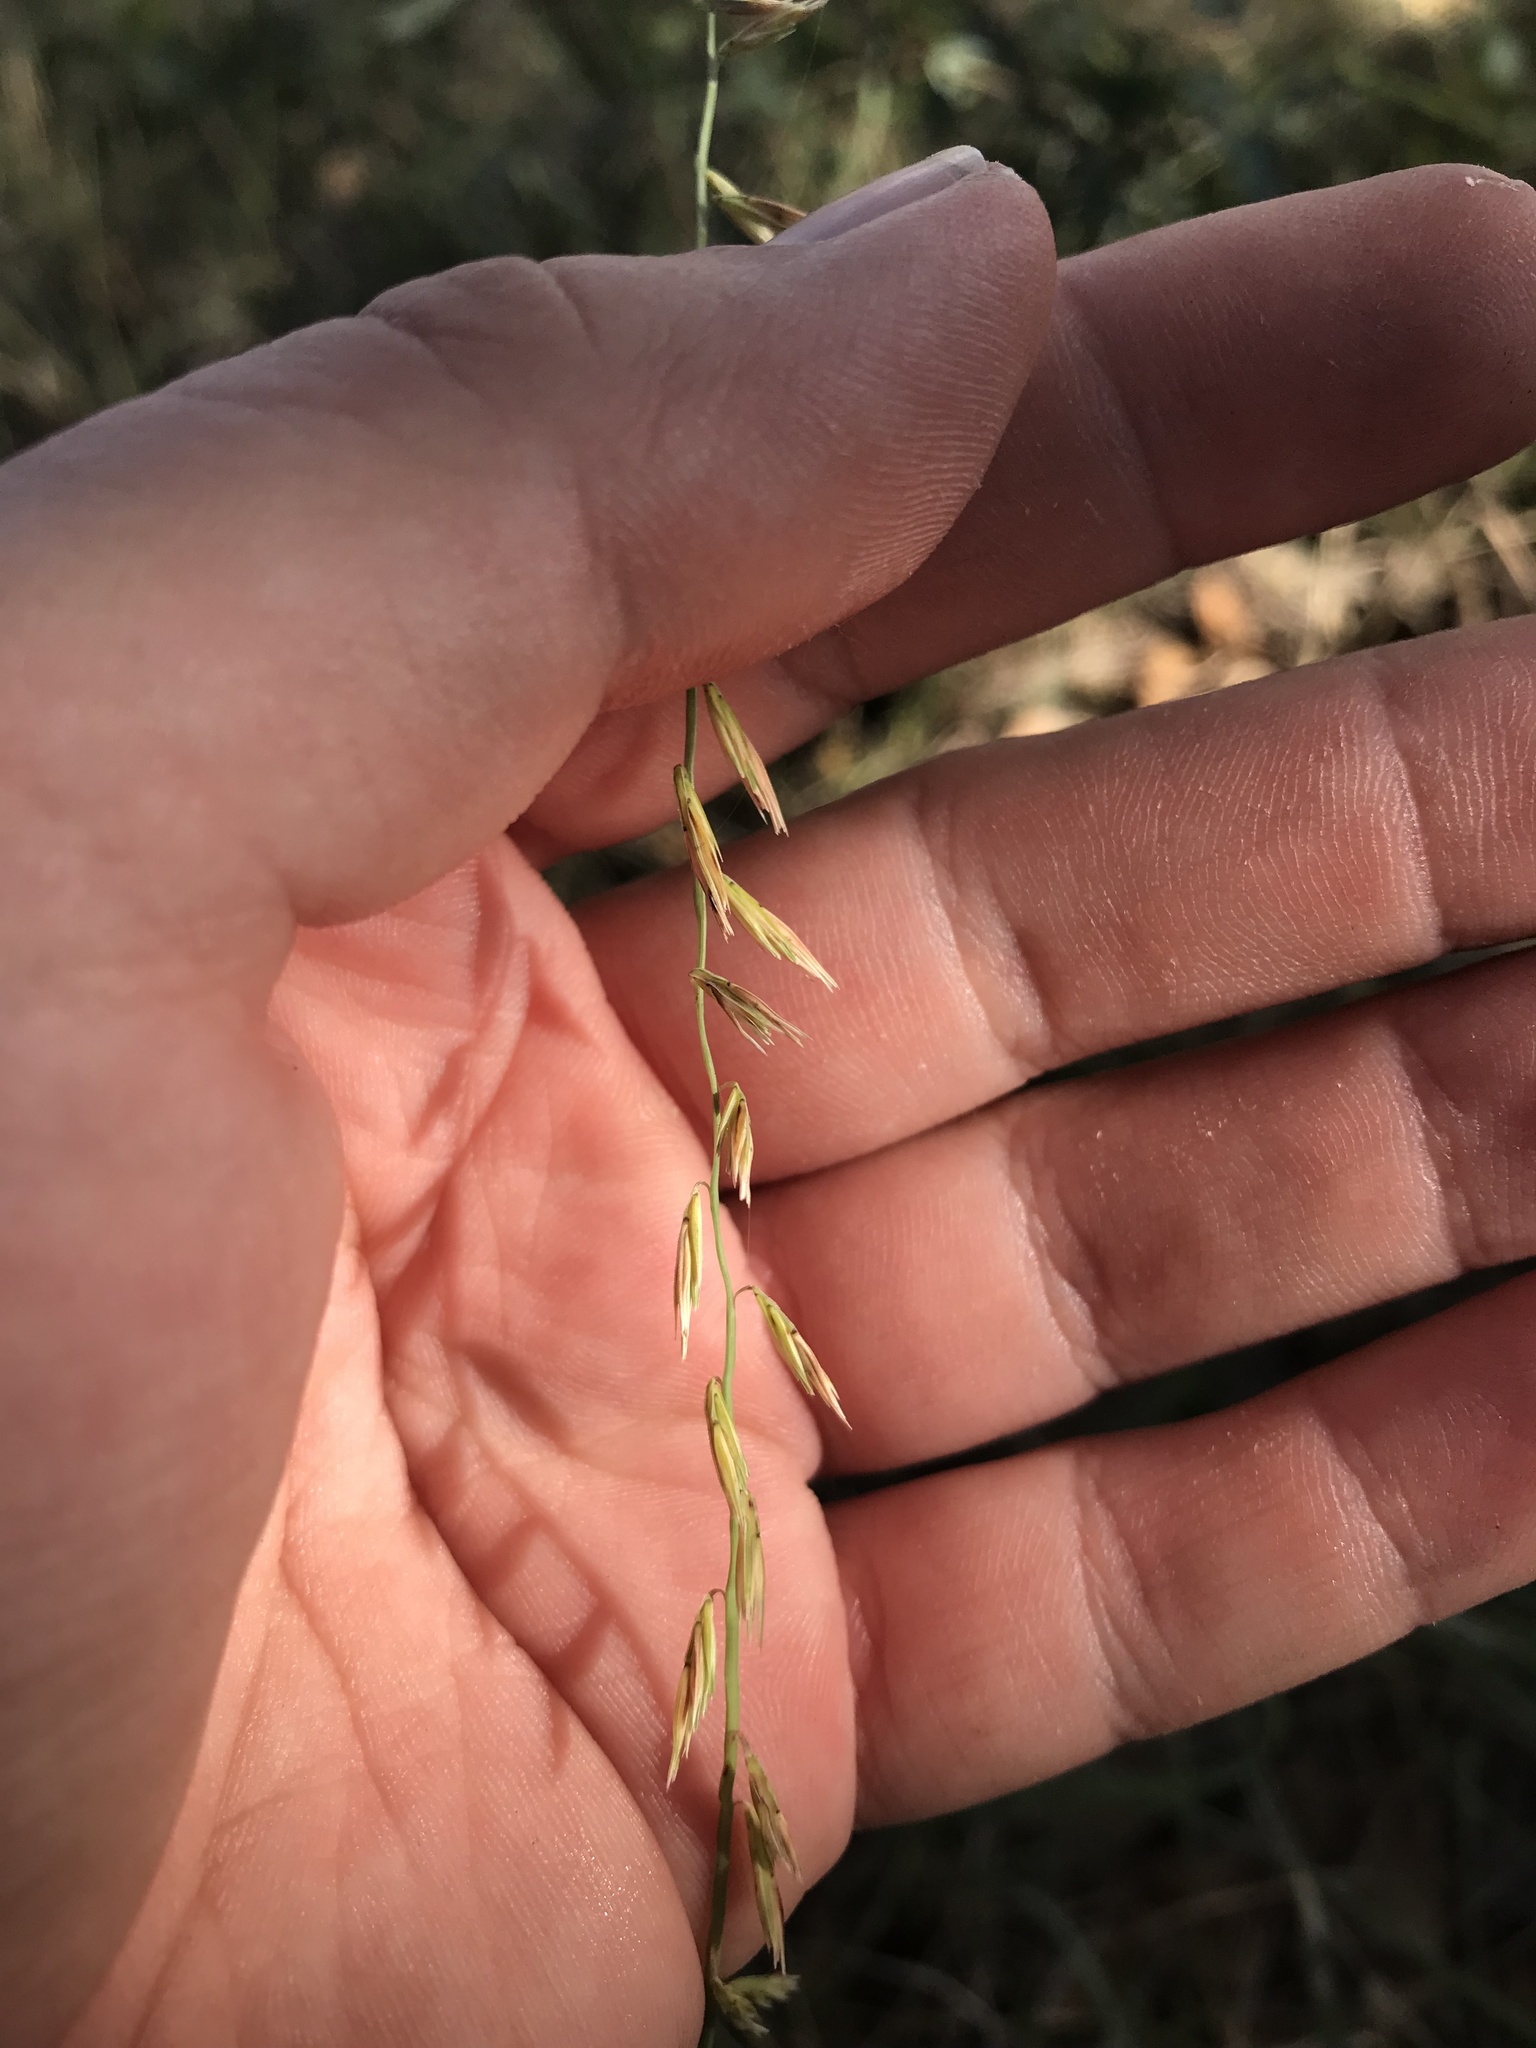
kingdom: Plantae
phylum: Tracheophyta
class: Liliopsida
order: Poales
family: Poaceae
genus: Bouteloua
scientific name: Bouteloua curtipendula
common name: Side-oats grama
